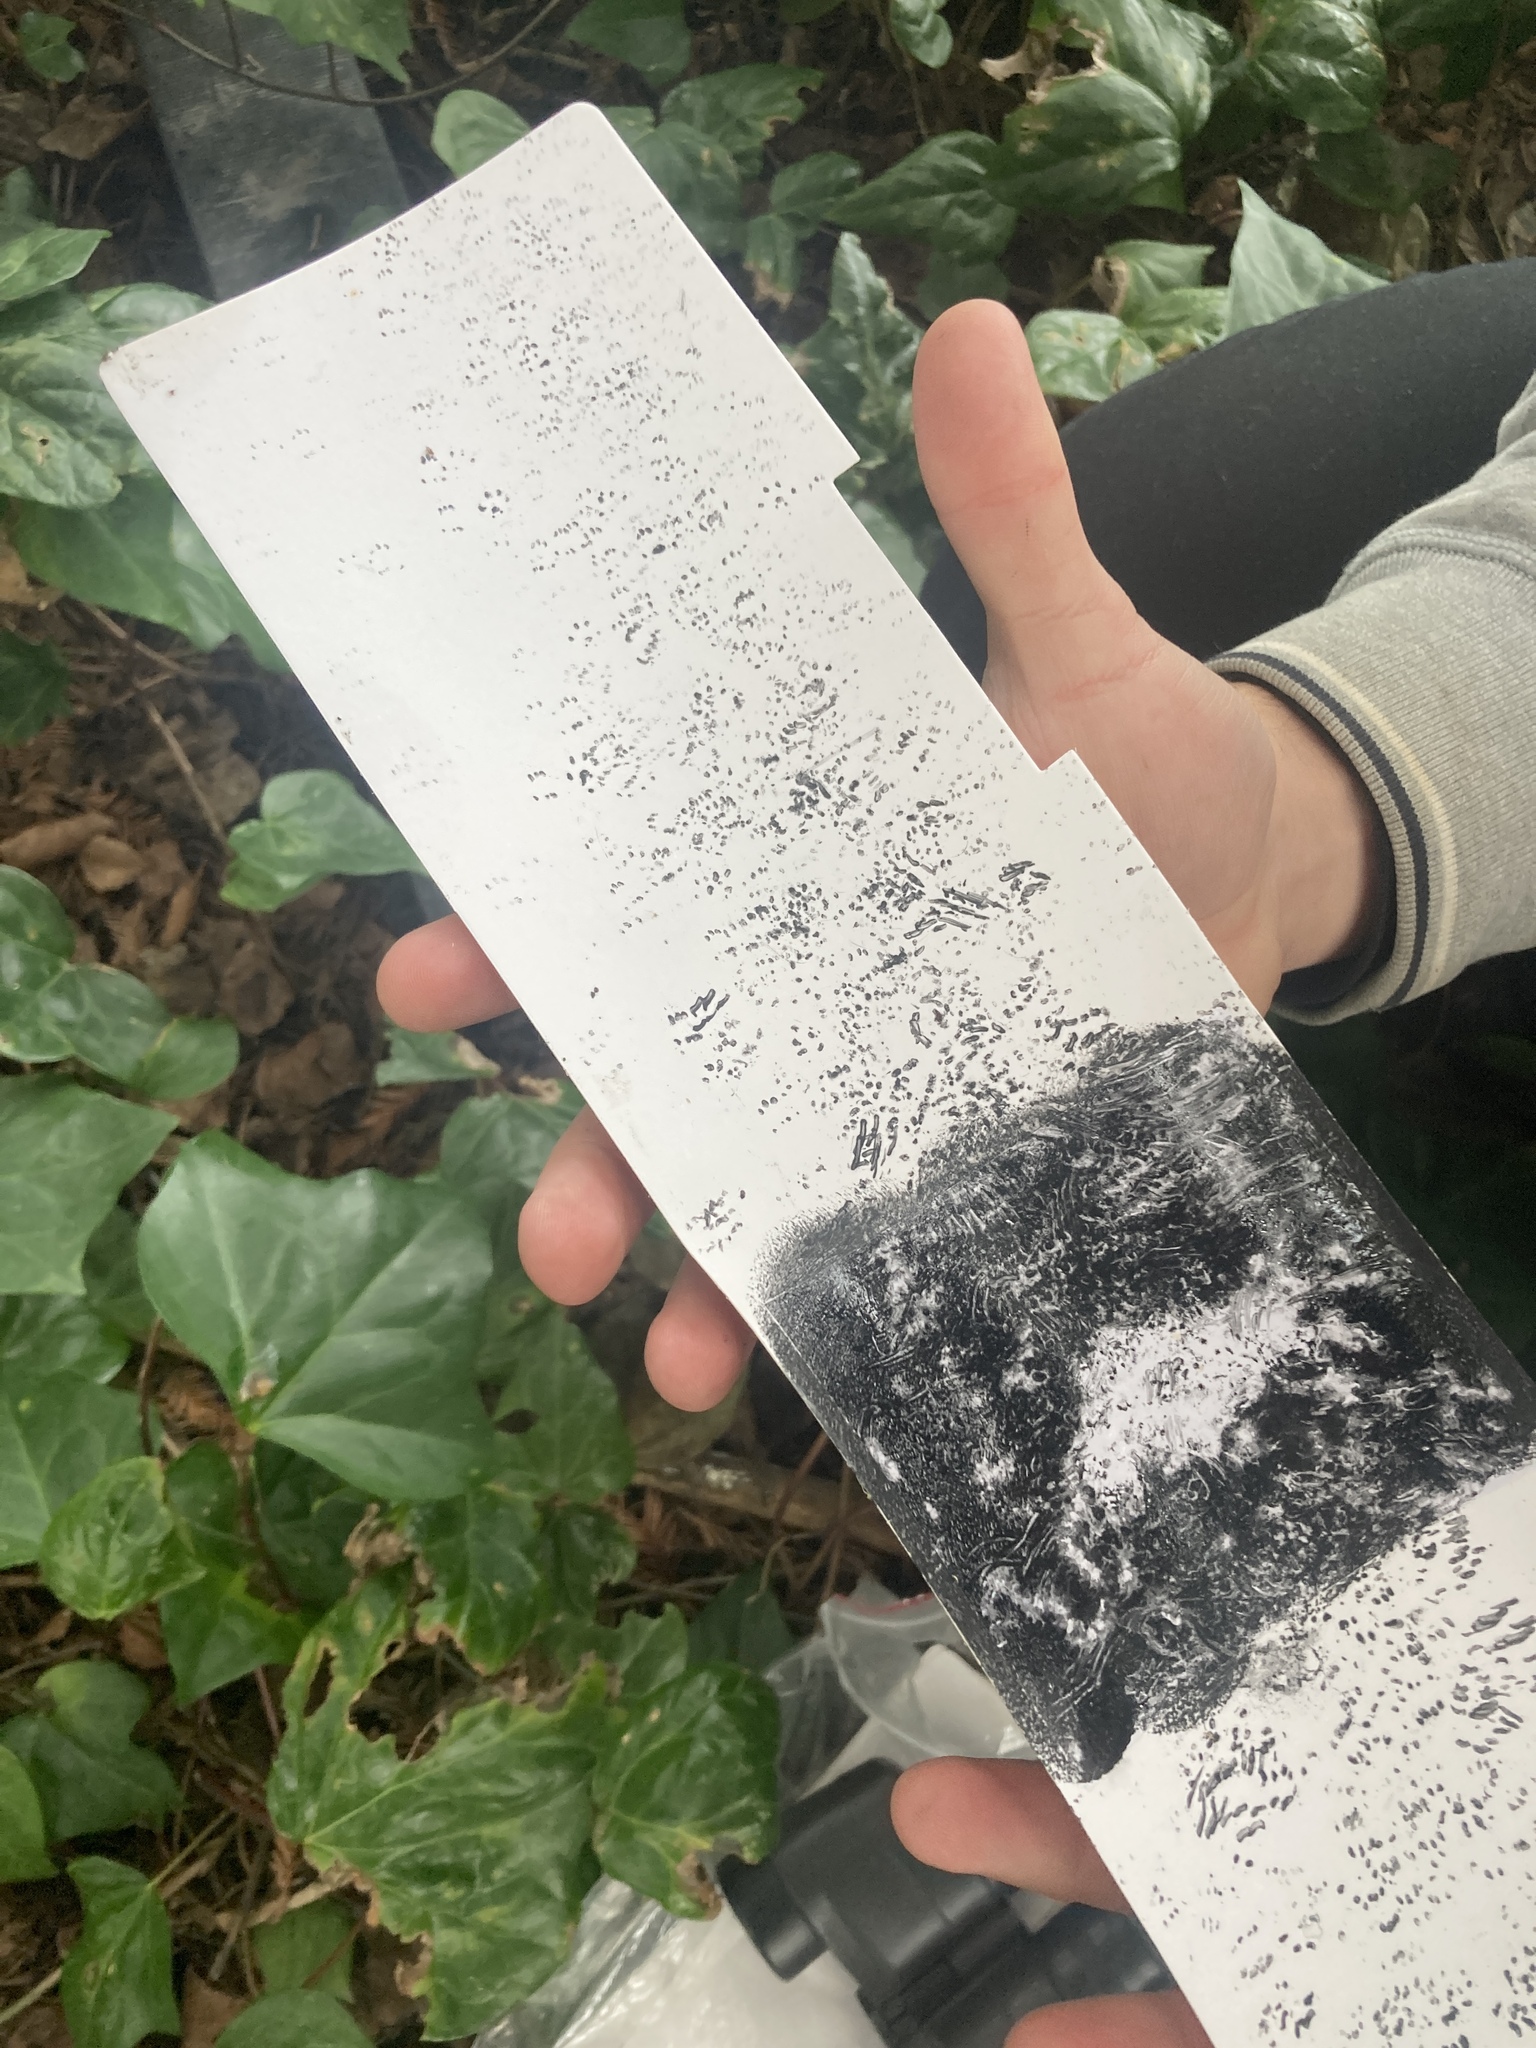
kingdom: Animalia
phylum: Chordata
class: Mammalia
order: Rodentia
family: Muridae
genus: Mus
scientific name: Mus musculus
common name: House mouse
